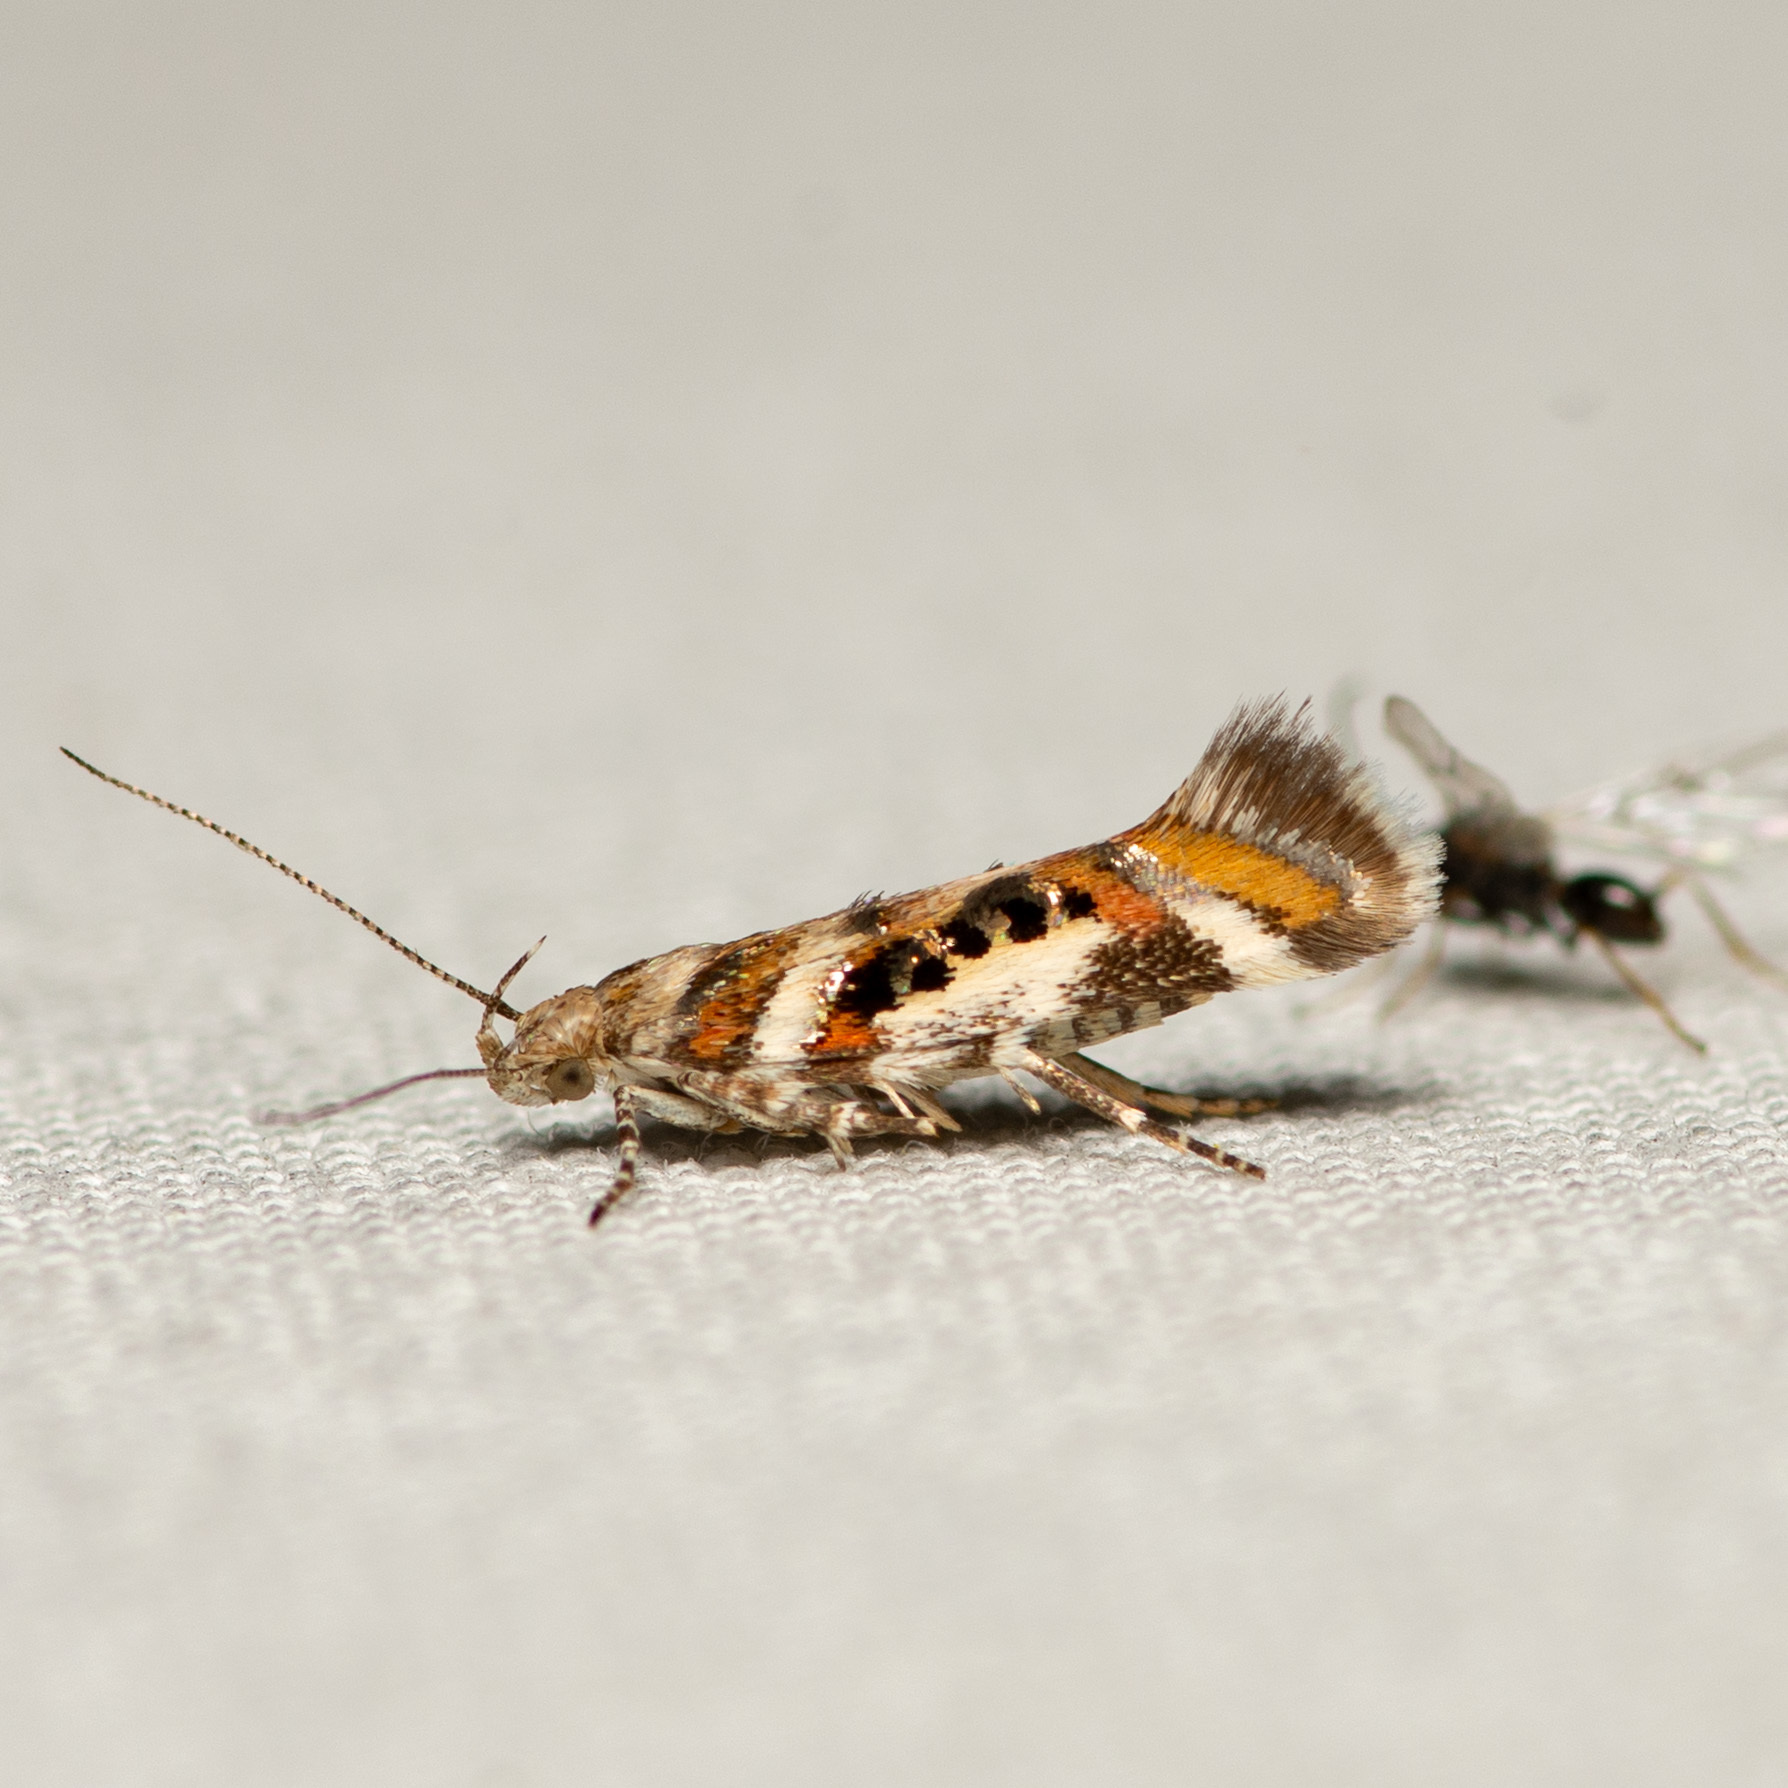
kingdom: Animalia
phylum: Arthropoda
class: Insecta
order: Lepidoptera
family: Gelechiidae
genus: Aristotelia
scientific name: Aristotelia elegantella
